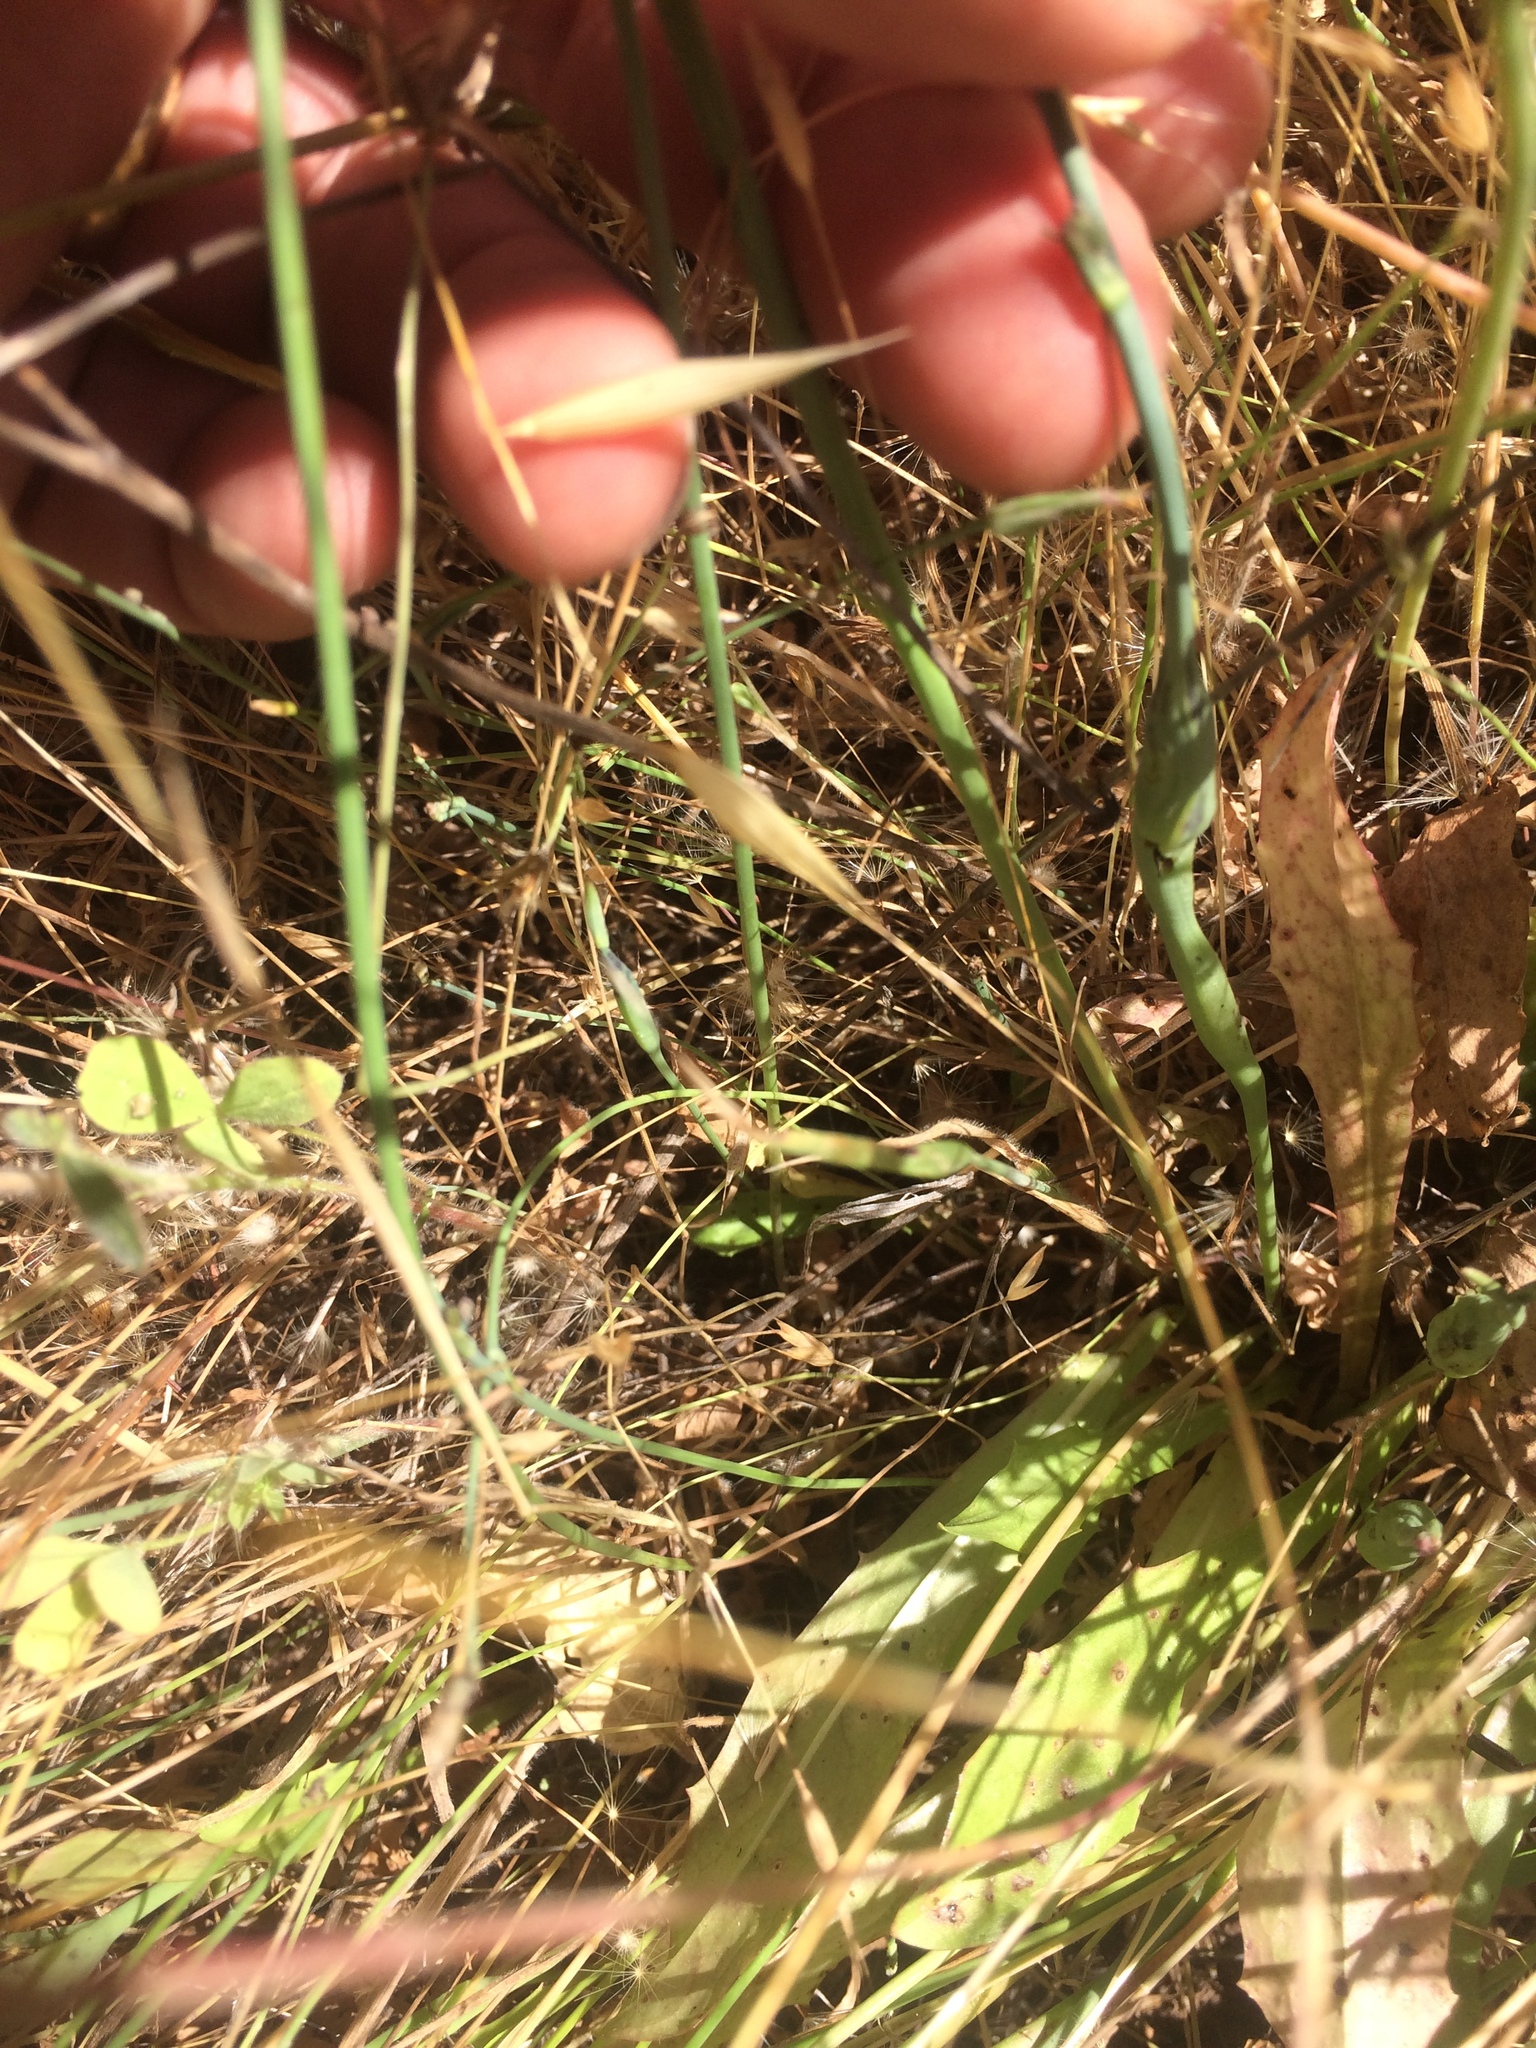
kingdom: Plantae
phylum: Tracheophyta
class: Magnoliopsida
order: Asterales
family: Asteraceae
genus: Hypochaeris
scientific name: Hypochaeris glabra
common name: Smooth catsear
